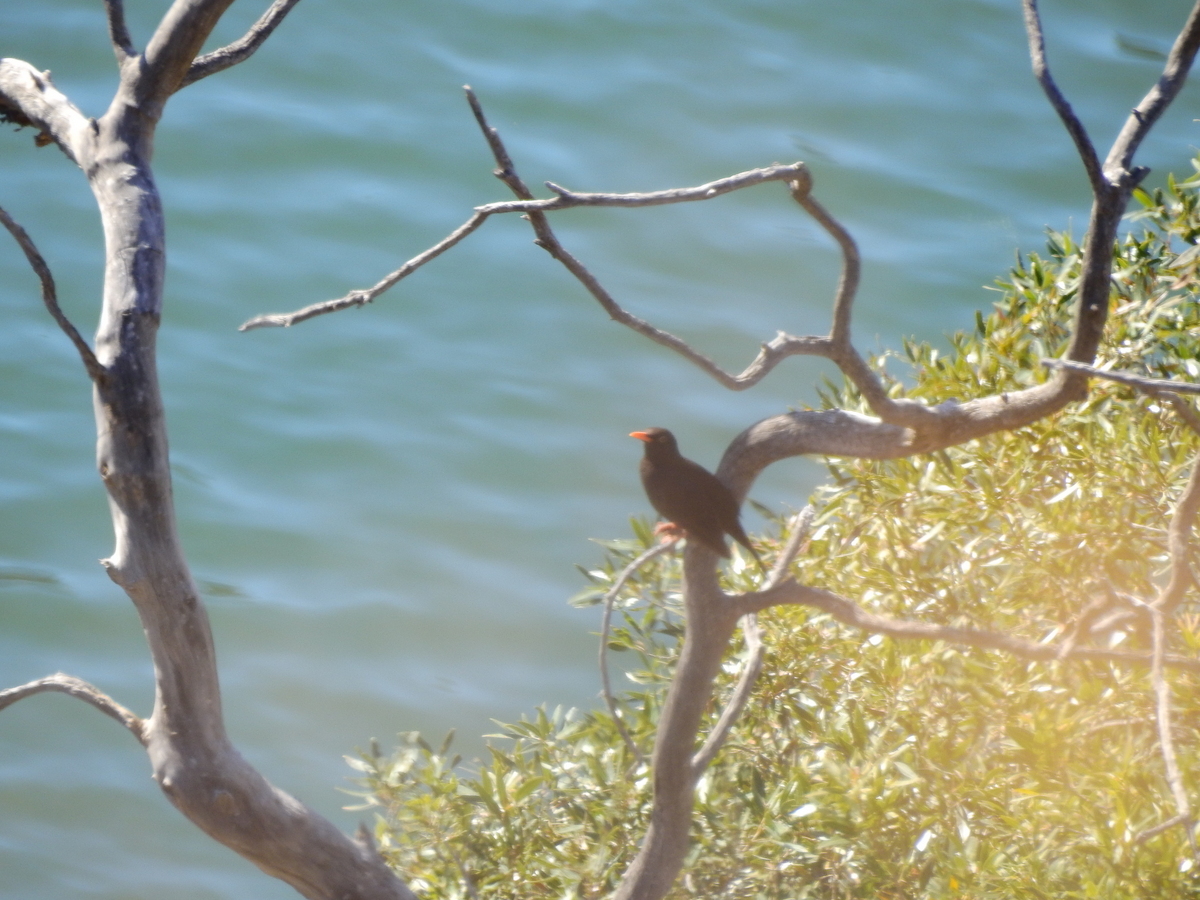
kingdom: Animalia
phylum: Chordata
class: Aves
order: Passeriformes
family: Turdidae
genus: Turdus
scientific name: Turdus chiguanco
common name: Chiguanco thrush
